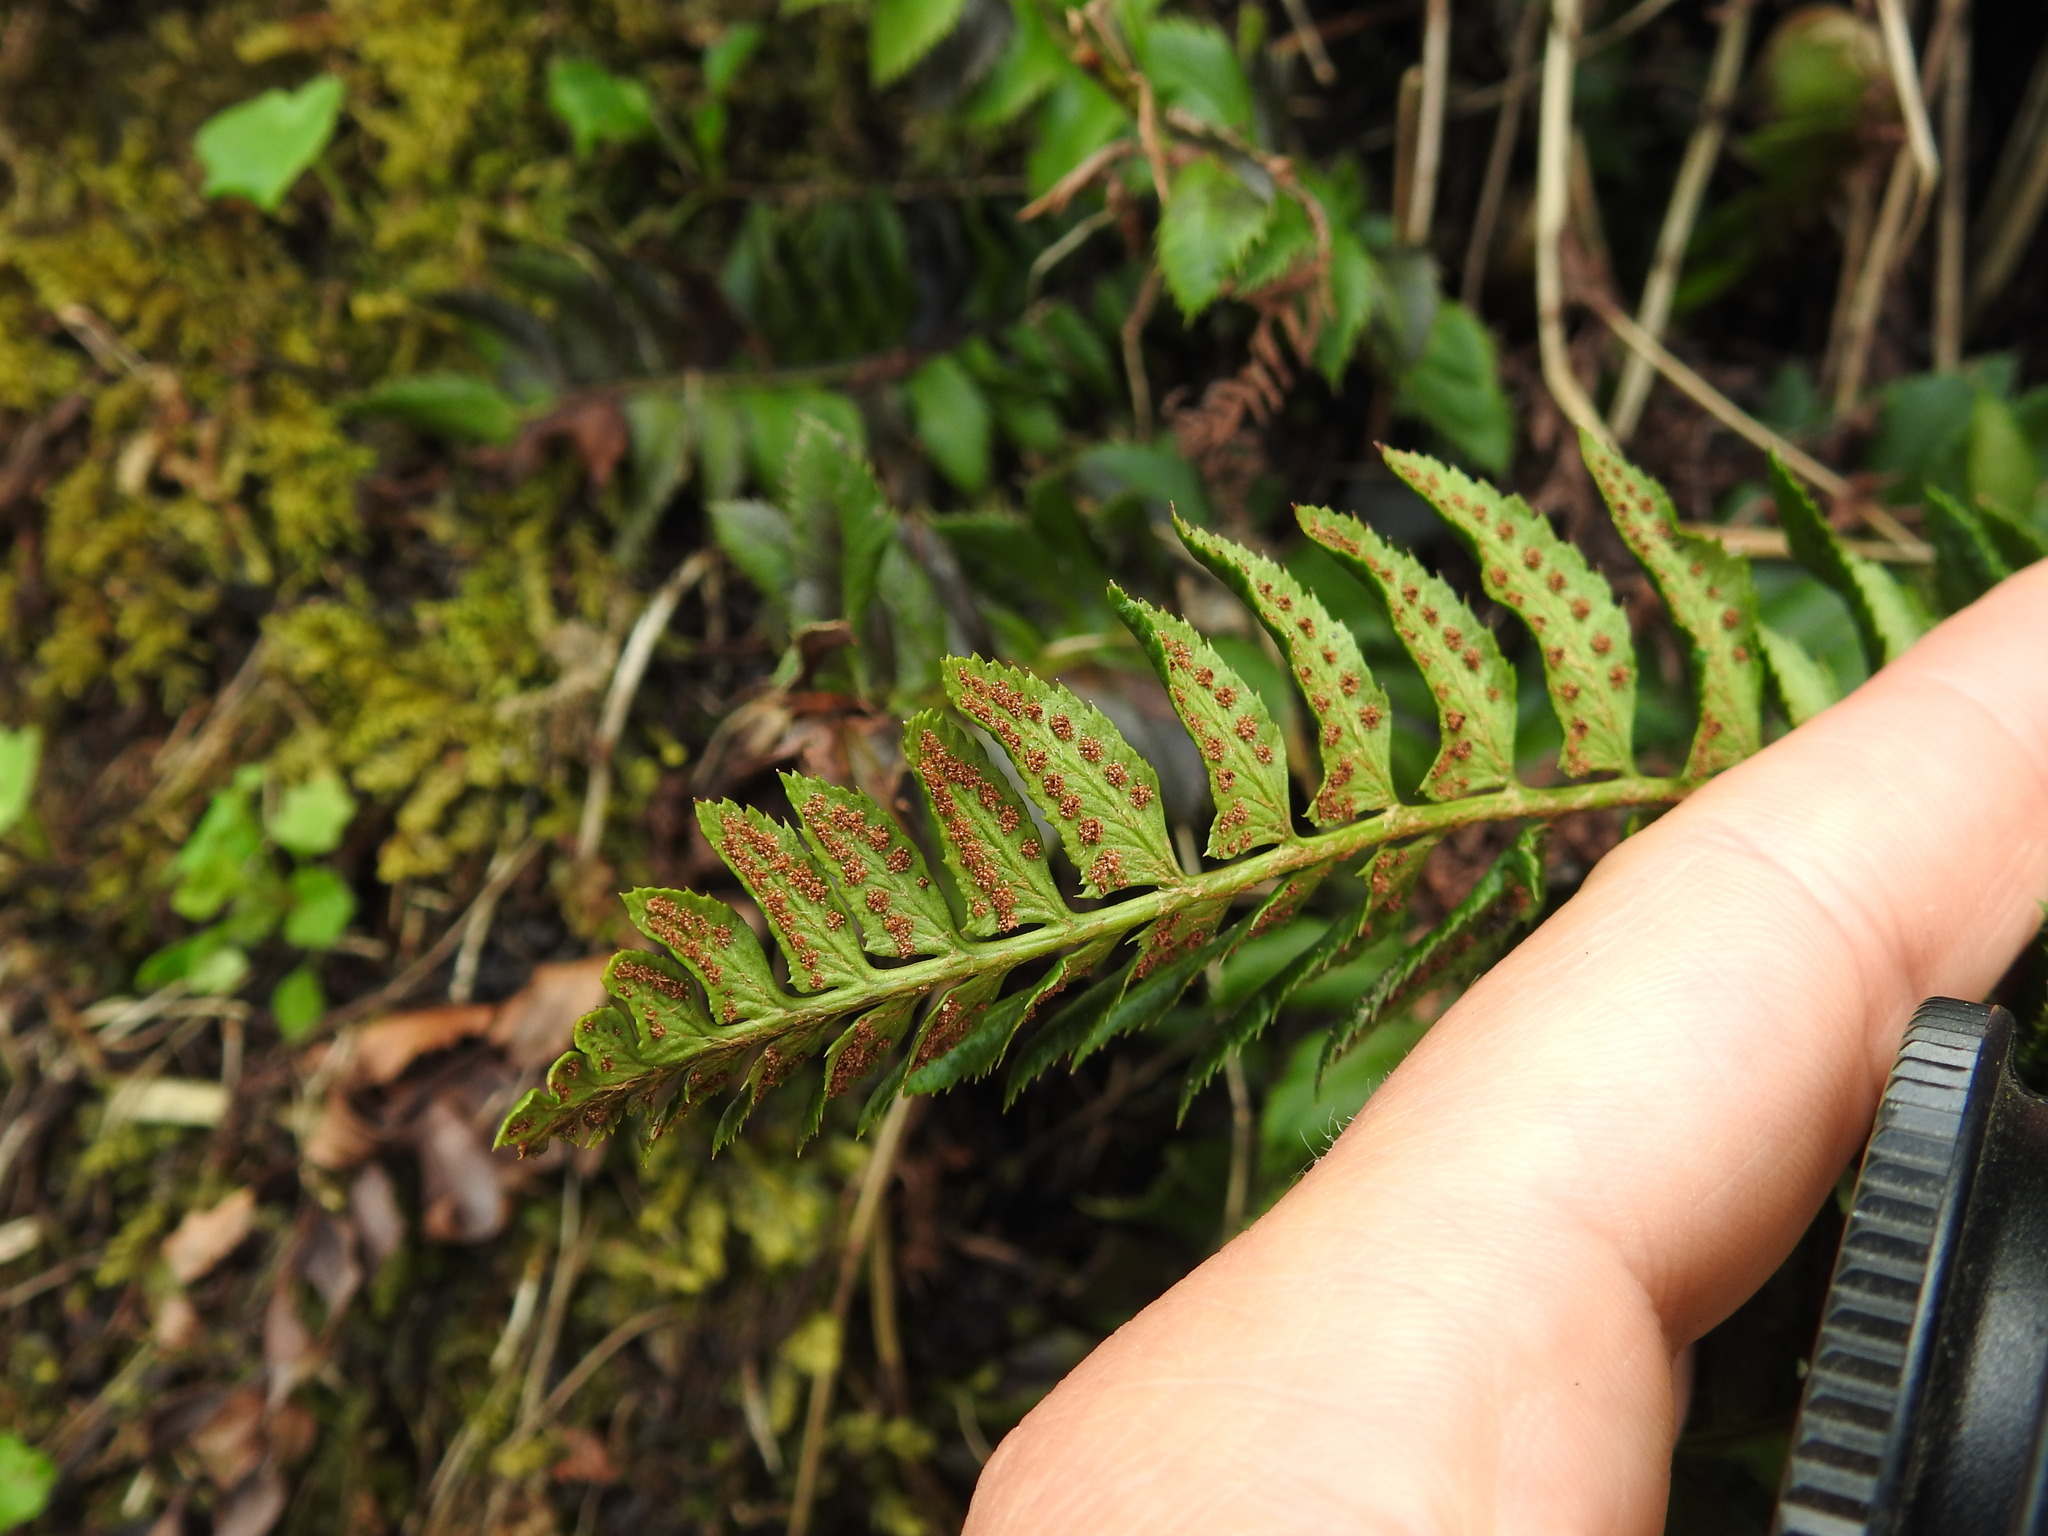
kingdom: Plantae
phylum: Tracheophyta
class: Polypodiopsida
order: Polypodiales
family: Dryopteridaceae
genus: Polystichum
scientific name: Polystichum lonchitis
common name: Holly fern
